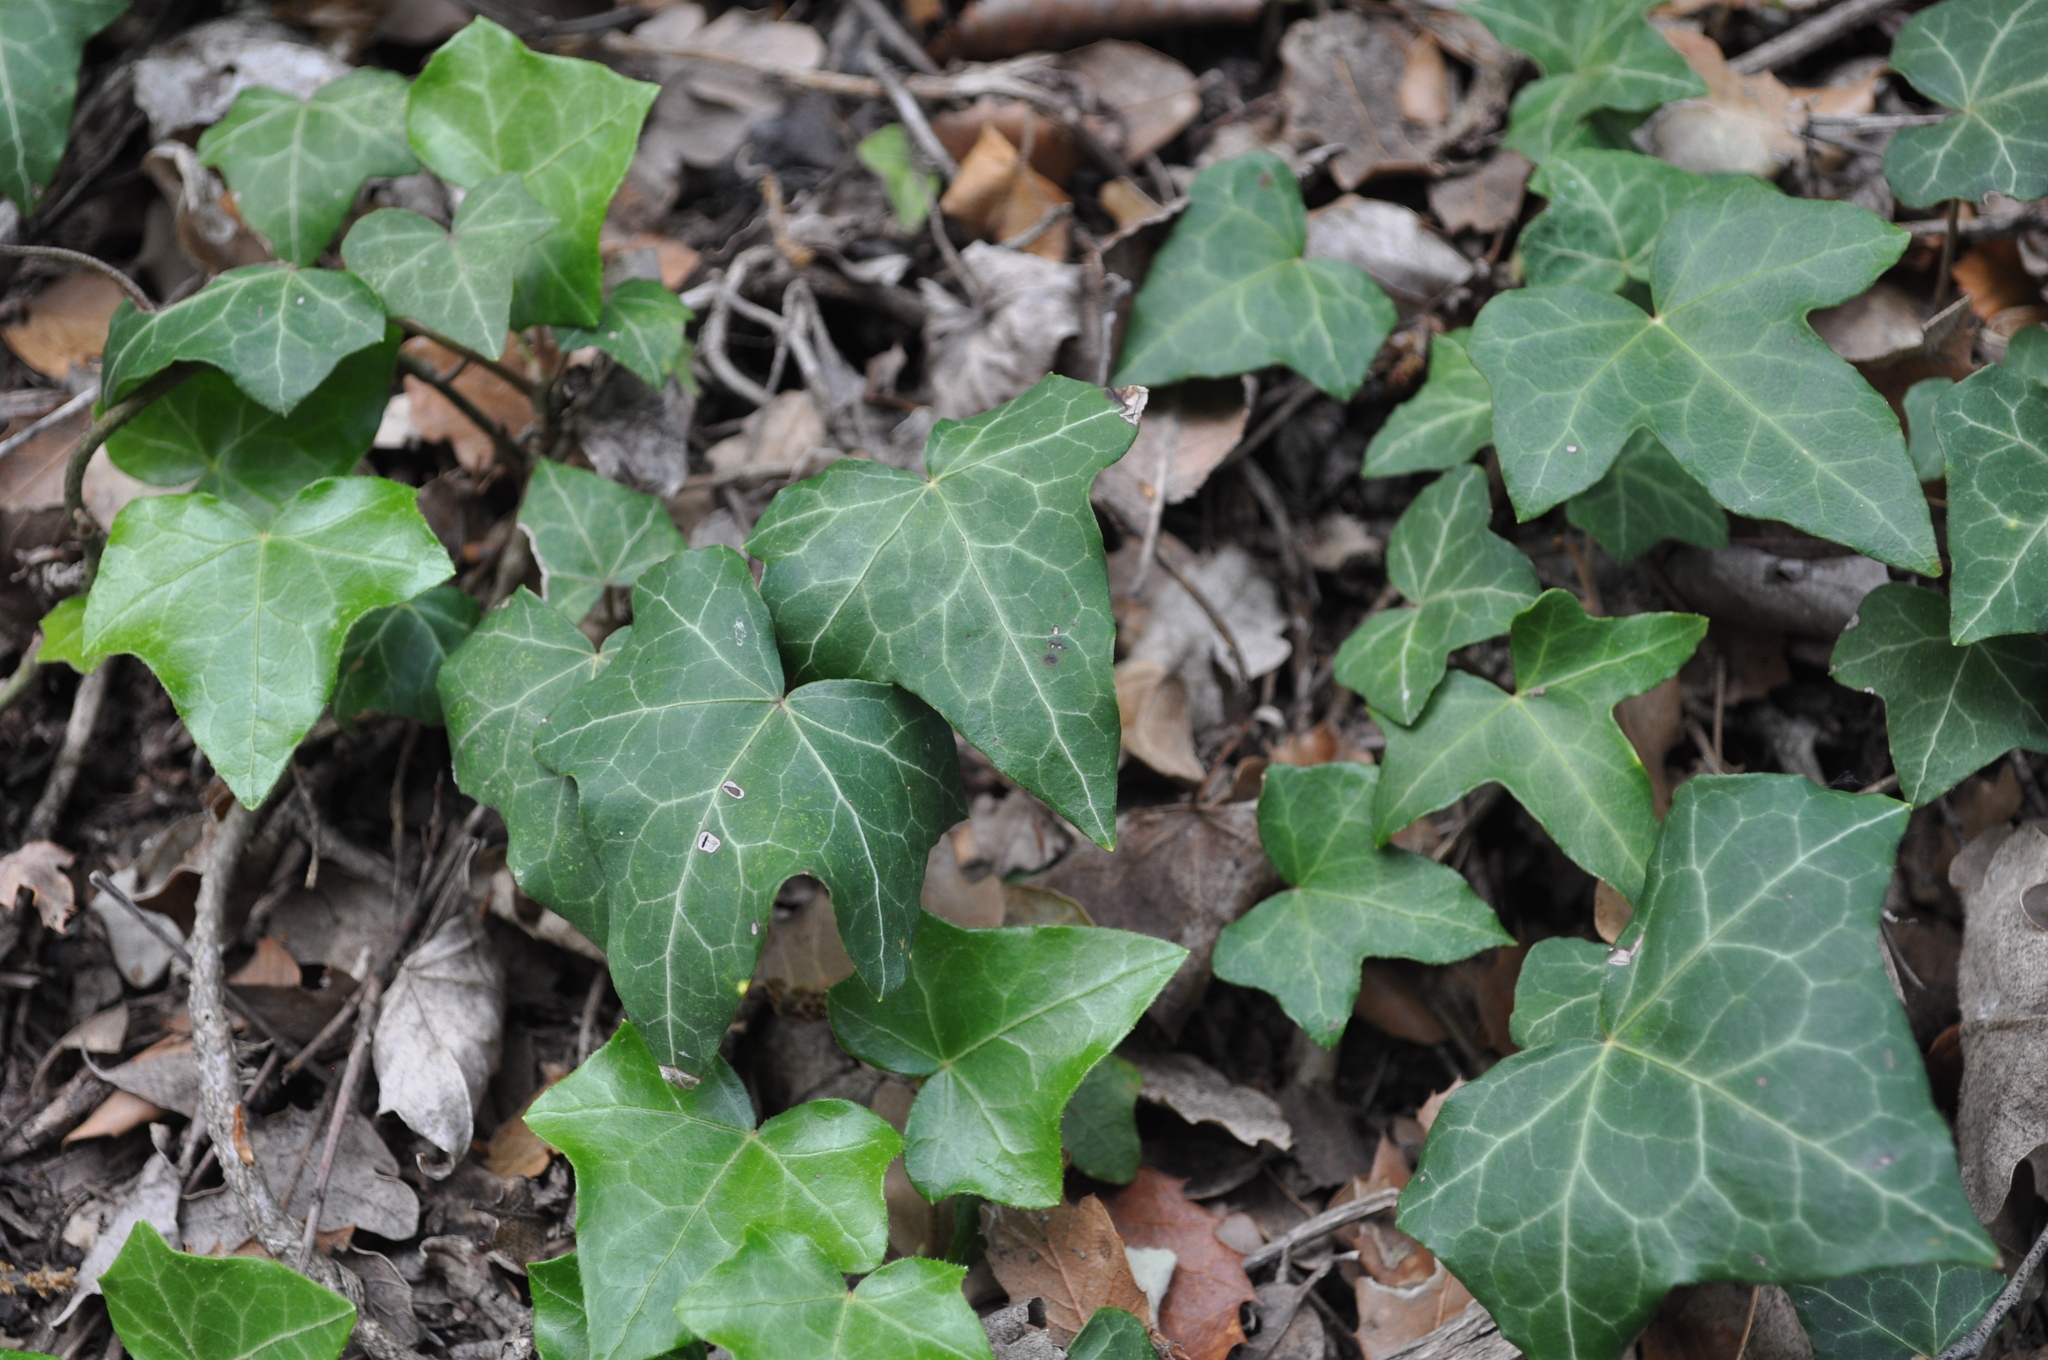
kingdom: Plantae
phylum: Tracheophyta
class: Magnoliopsida
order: Apiales
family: Araliaceae
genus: Hedera
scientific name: Hedera helix
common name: Ivy
